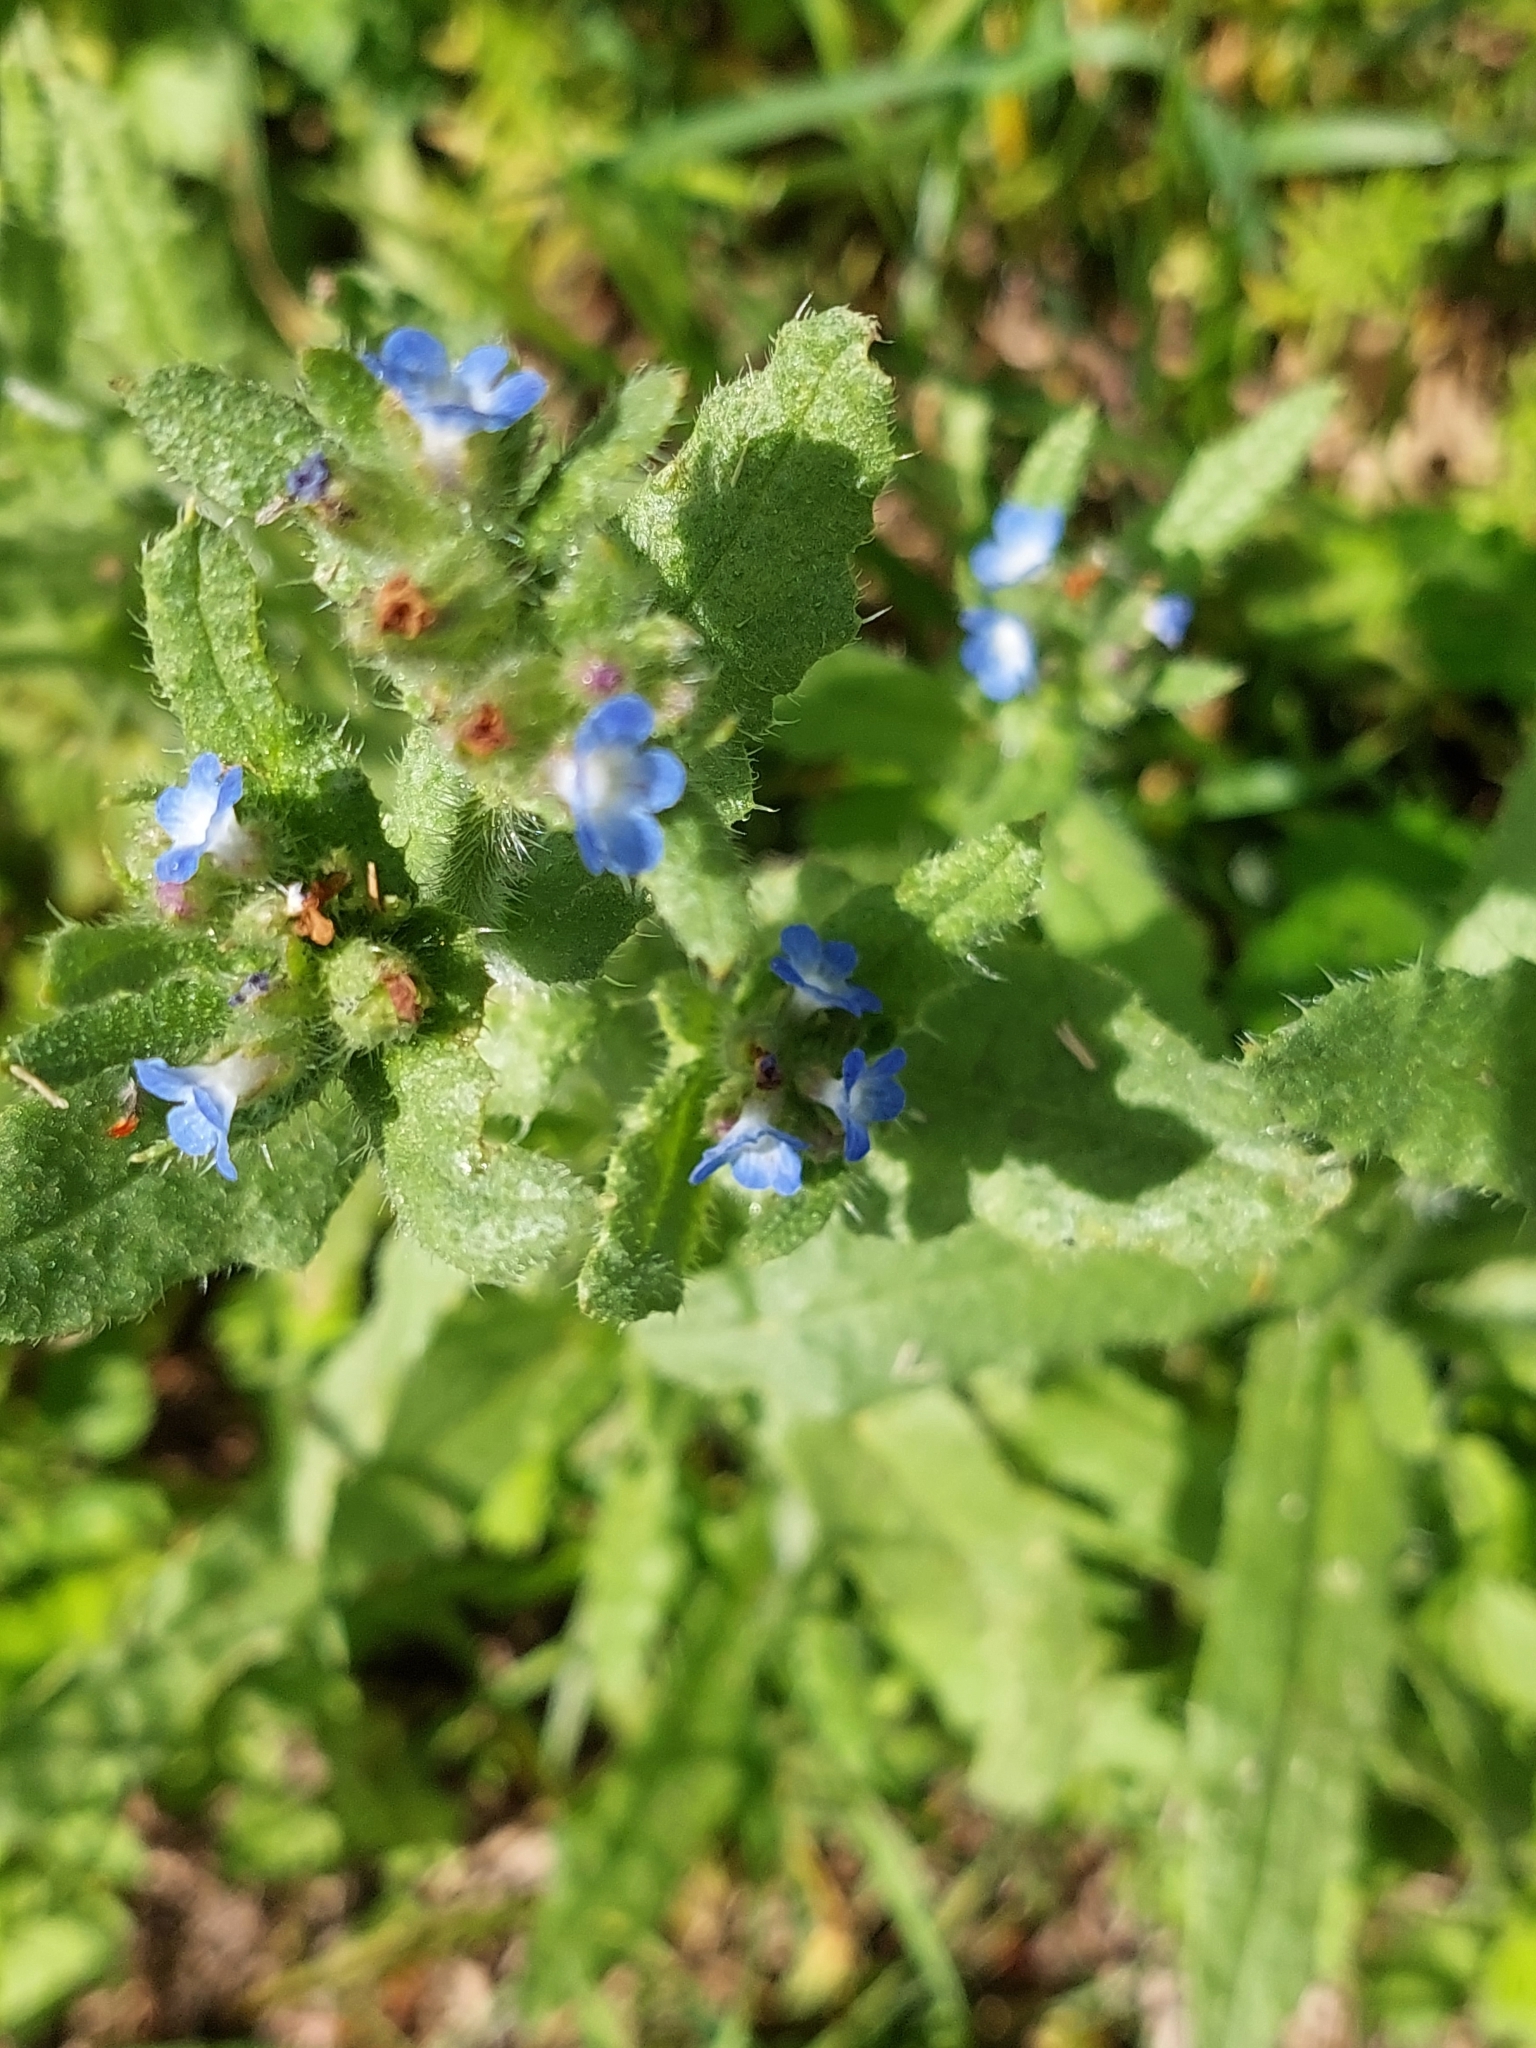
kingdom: Plantae
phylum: Tracheophyta
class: Magnoliopsida
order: Boraginales
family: Boraginaceae
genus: Pentaglottis
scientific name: Pentaglottis sempervirens
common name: Green alkanet
